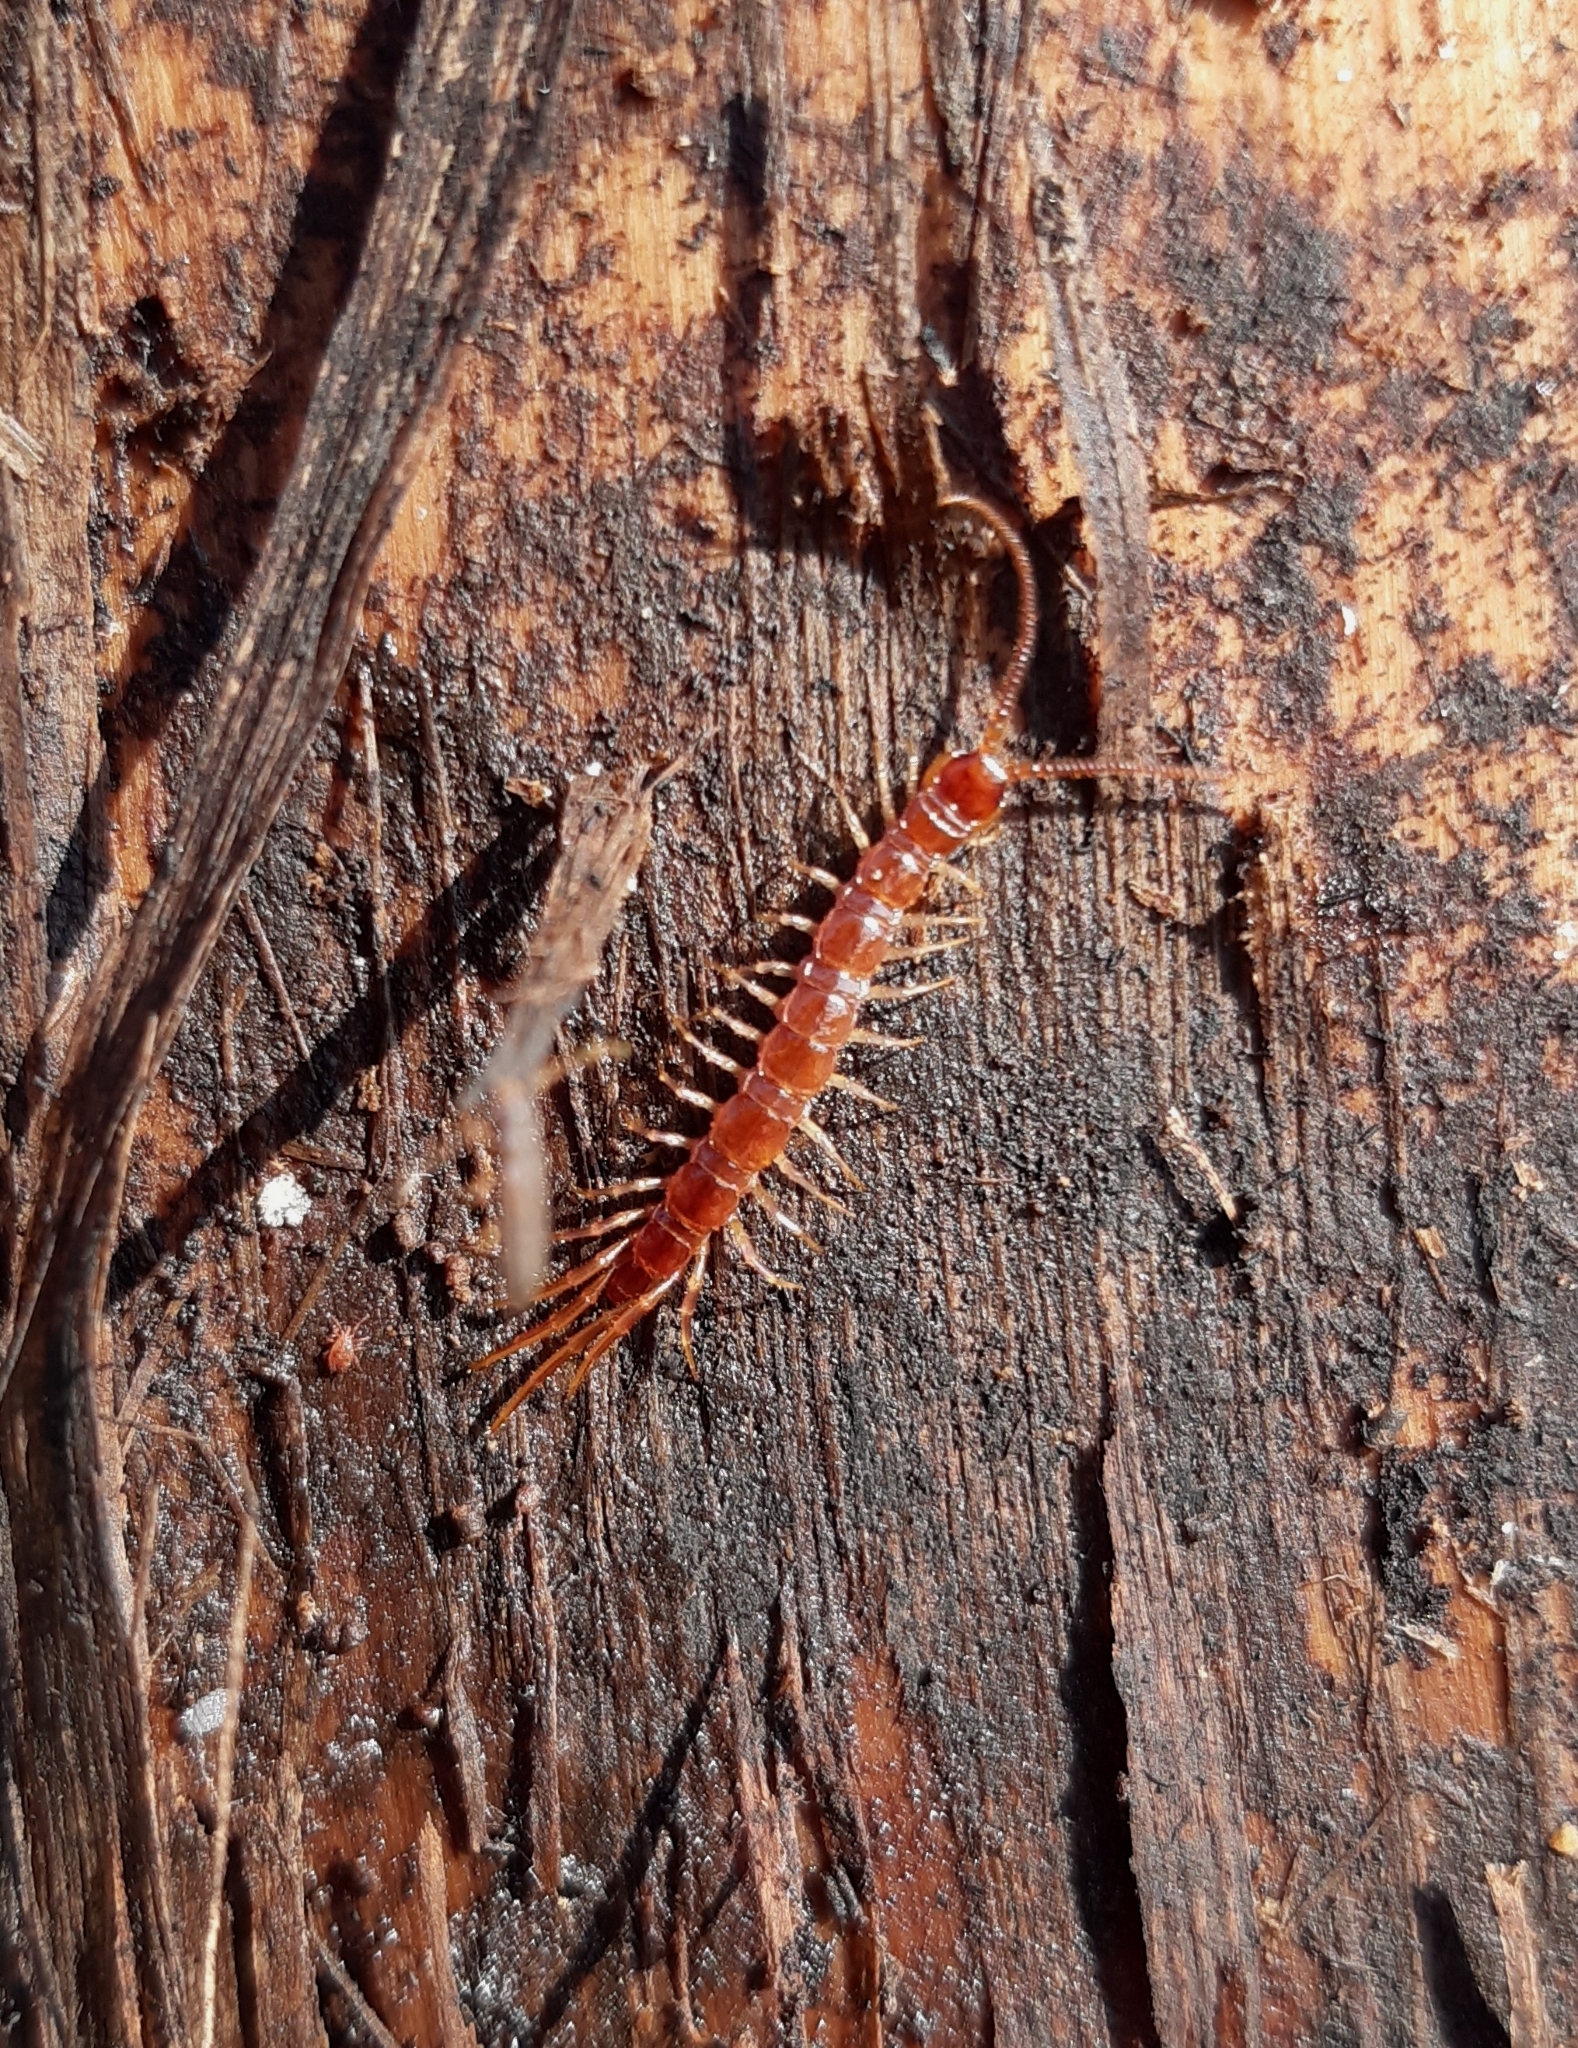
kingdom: Animalia
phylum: Arthropoda
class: Chilopoda
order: Lithobiomorpha
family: Lithobiidae
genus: Lithobius
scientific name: Lithobius forficatus
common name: Centipede
